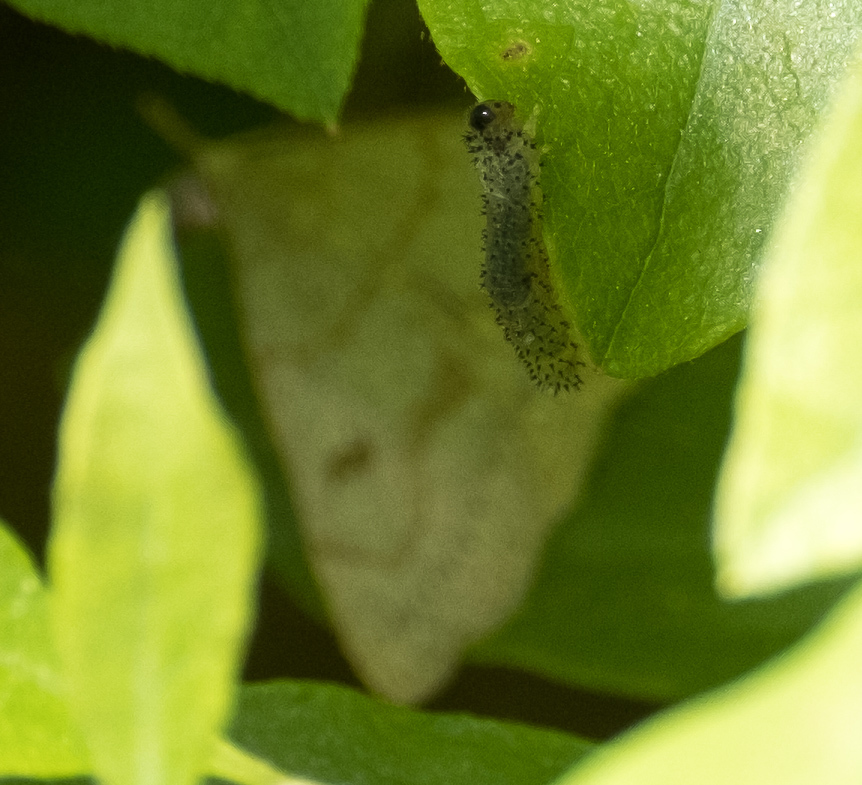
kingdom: Animalia
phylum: Arthropoda
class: Insecta
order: Lepidoptera
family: Erebidae
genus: Macrochilo
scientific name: Macrochilo morbidalis
